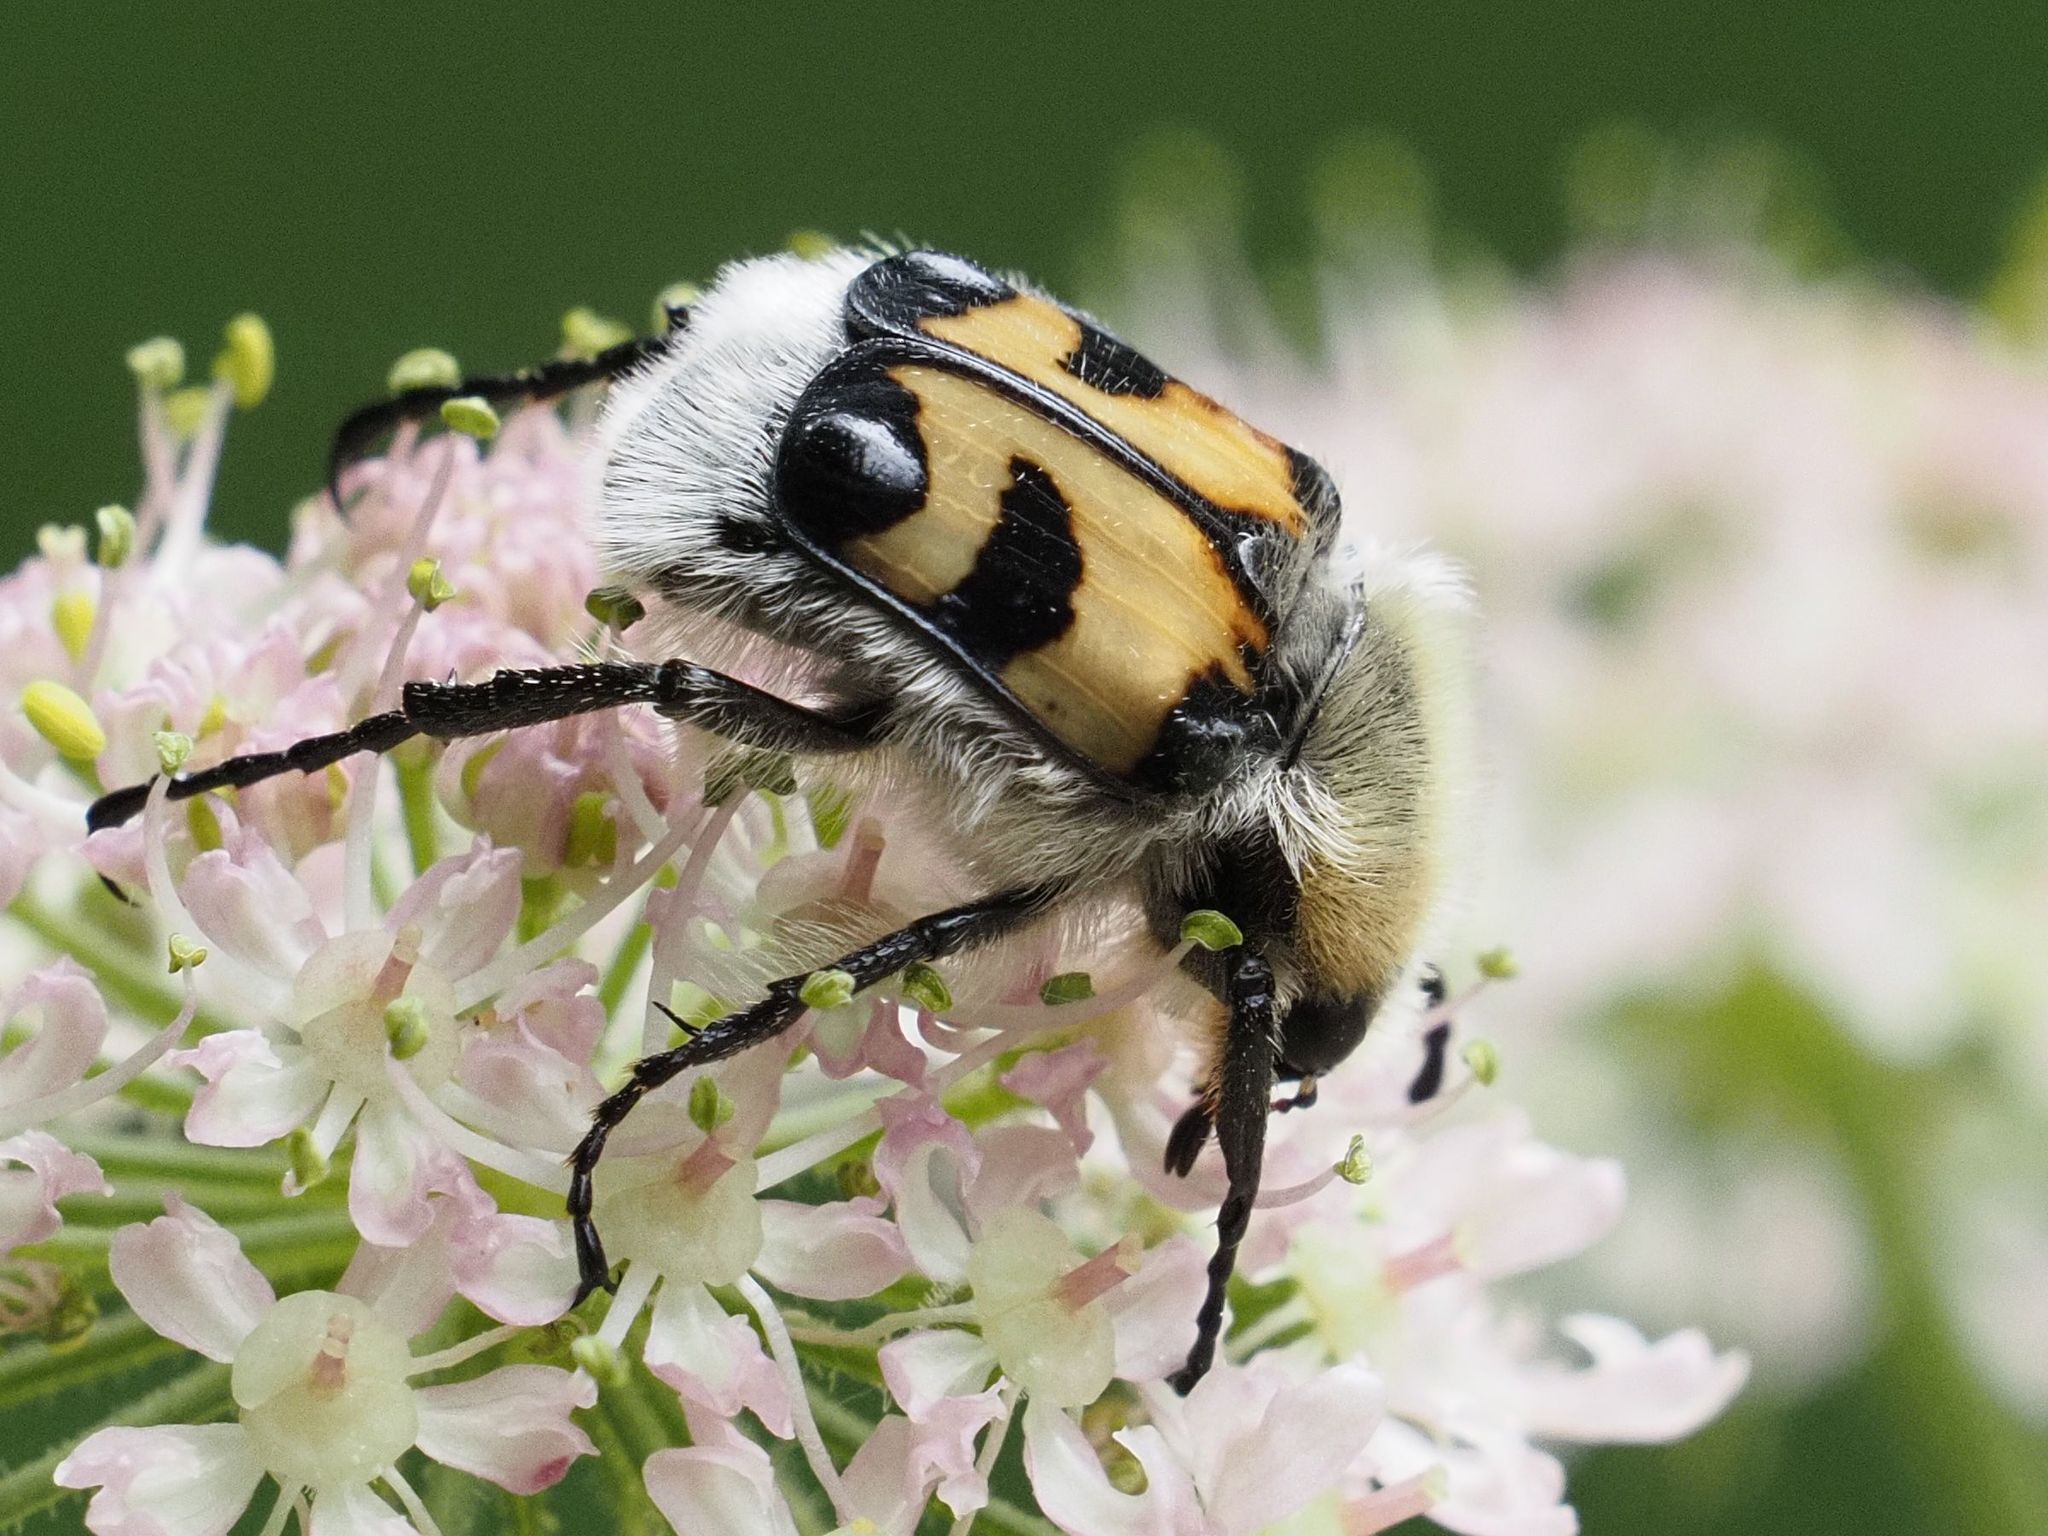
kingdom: Animalia
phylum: Arthropoda
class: Insecta
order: Coleoptera
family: Scarabaeidae
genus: Trichius
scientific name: Trichius fasciatus
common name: Bee beetle
